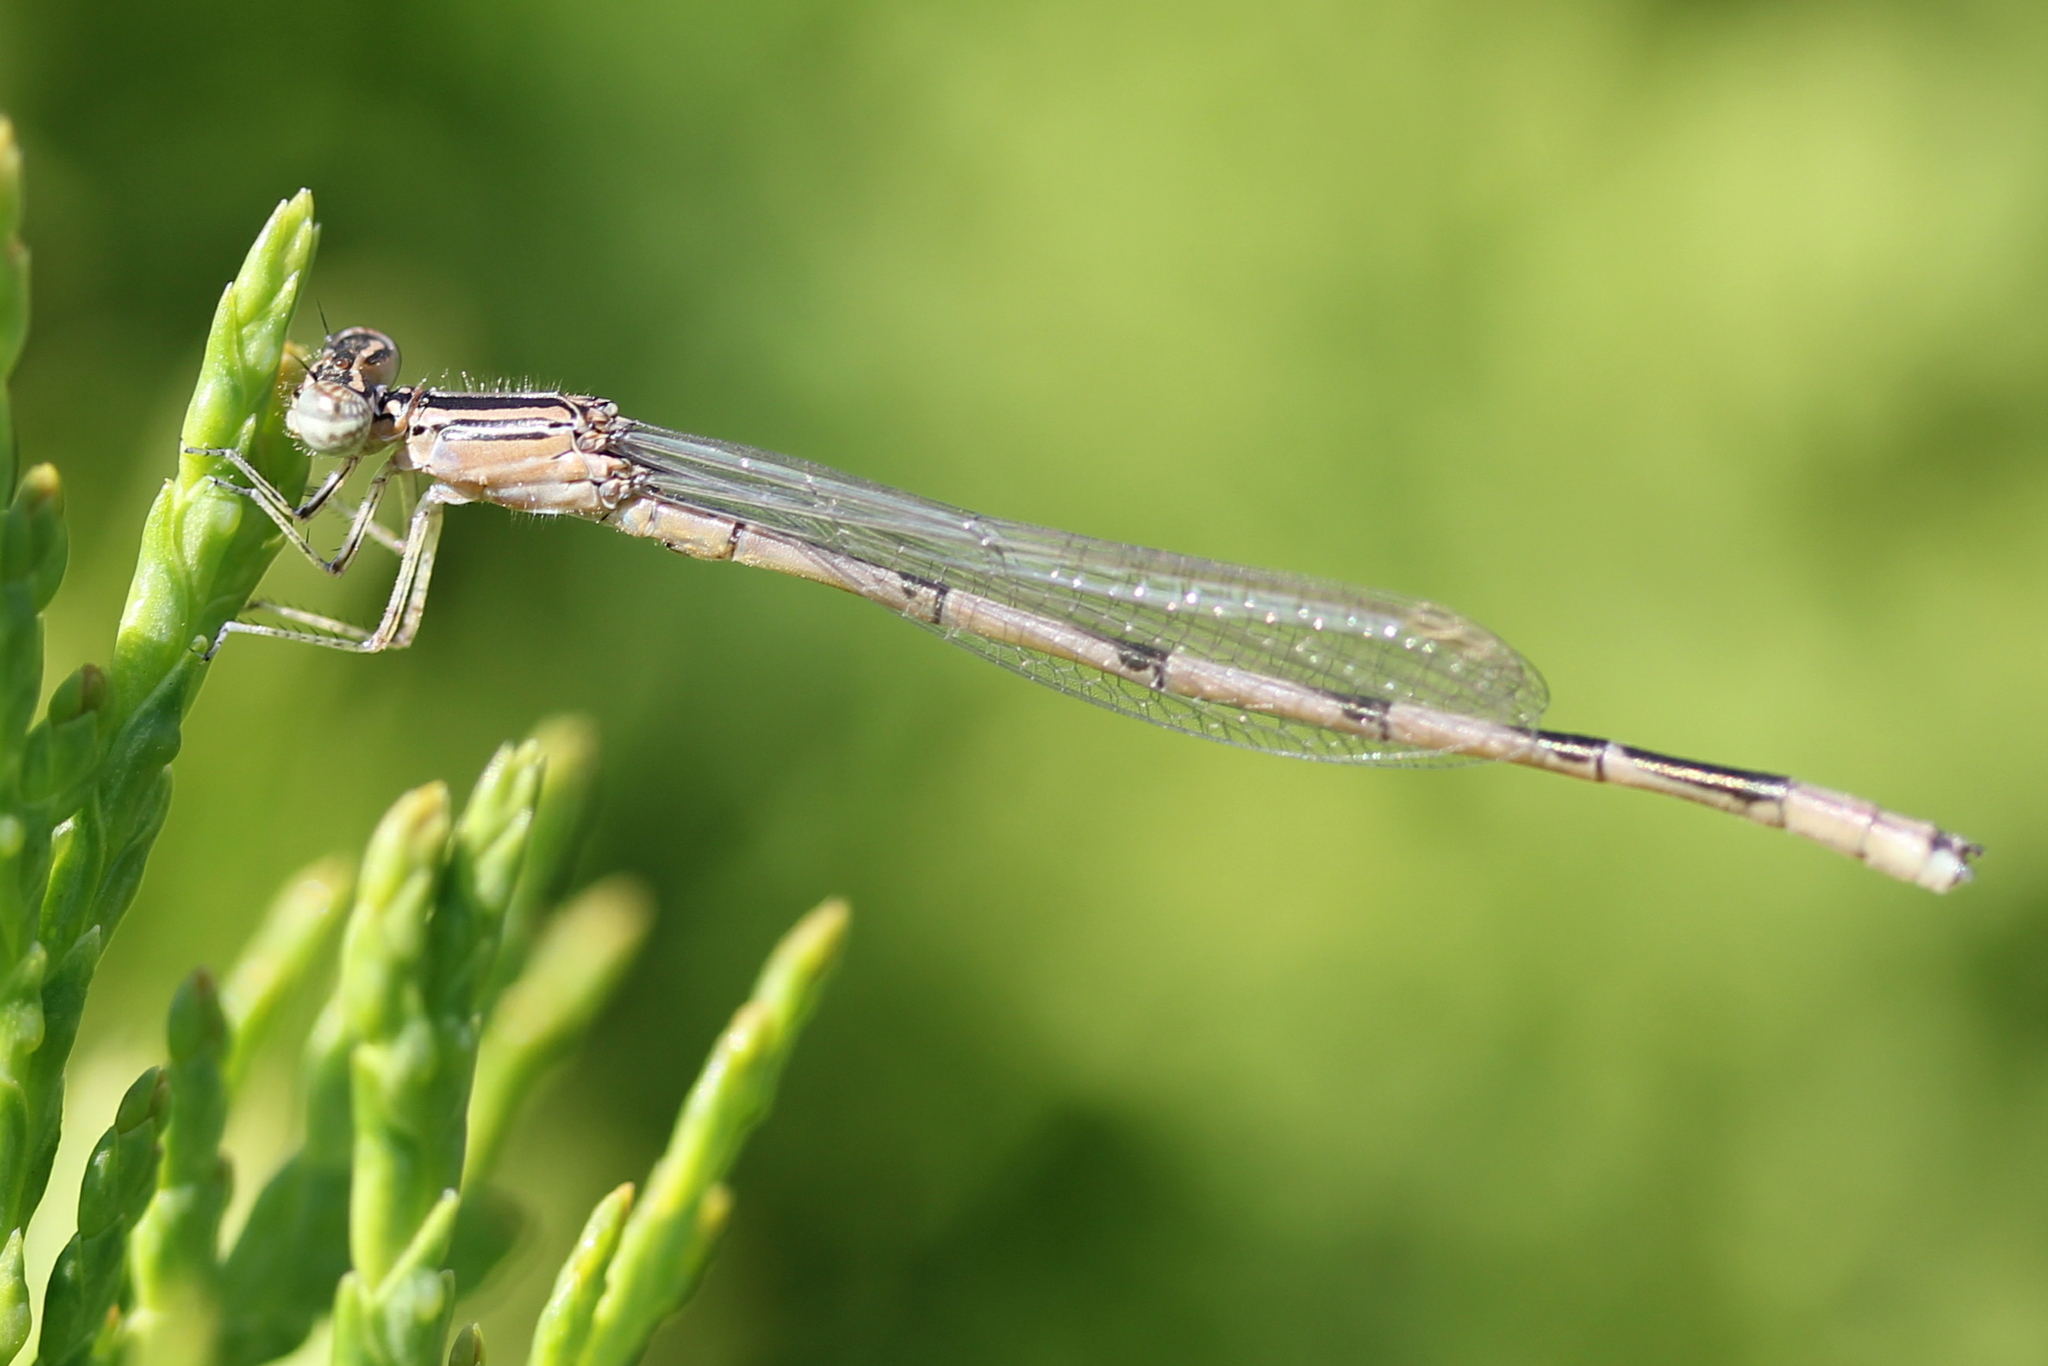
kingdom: Animalia
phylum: Arthropoda
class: Insecta
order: Odonata
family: Coenagrionidae
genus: Enallagma
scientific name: Enallagma basidens
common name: Double-striped bluet
